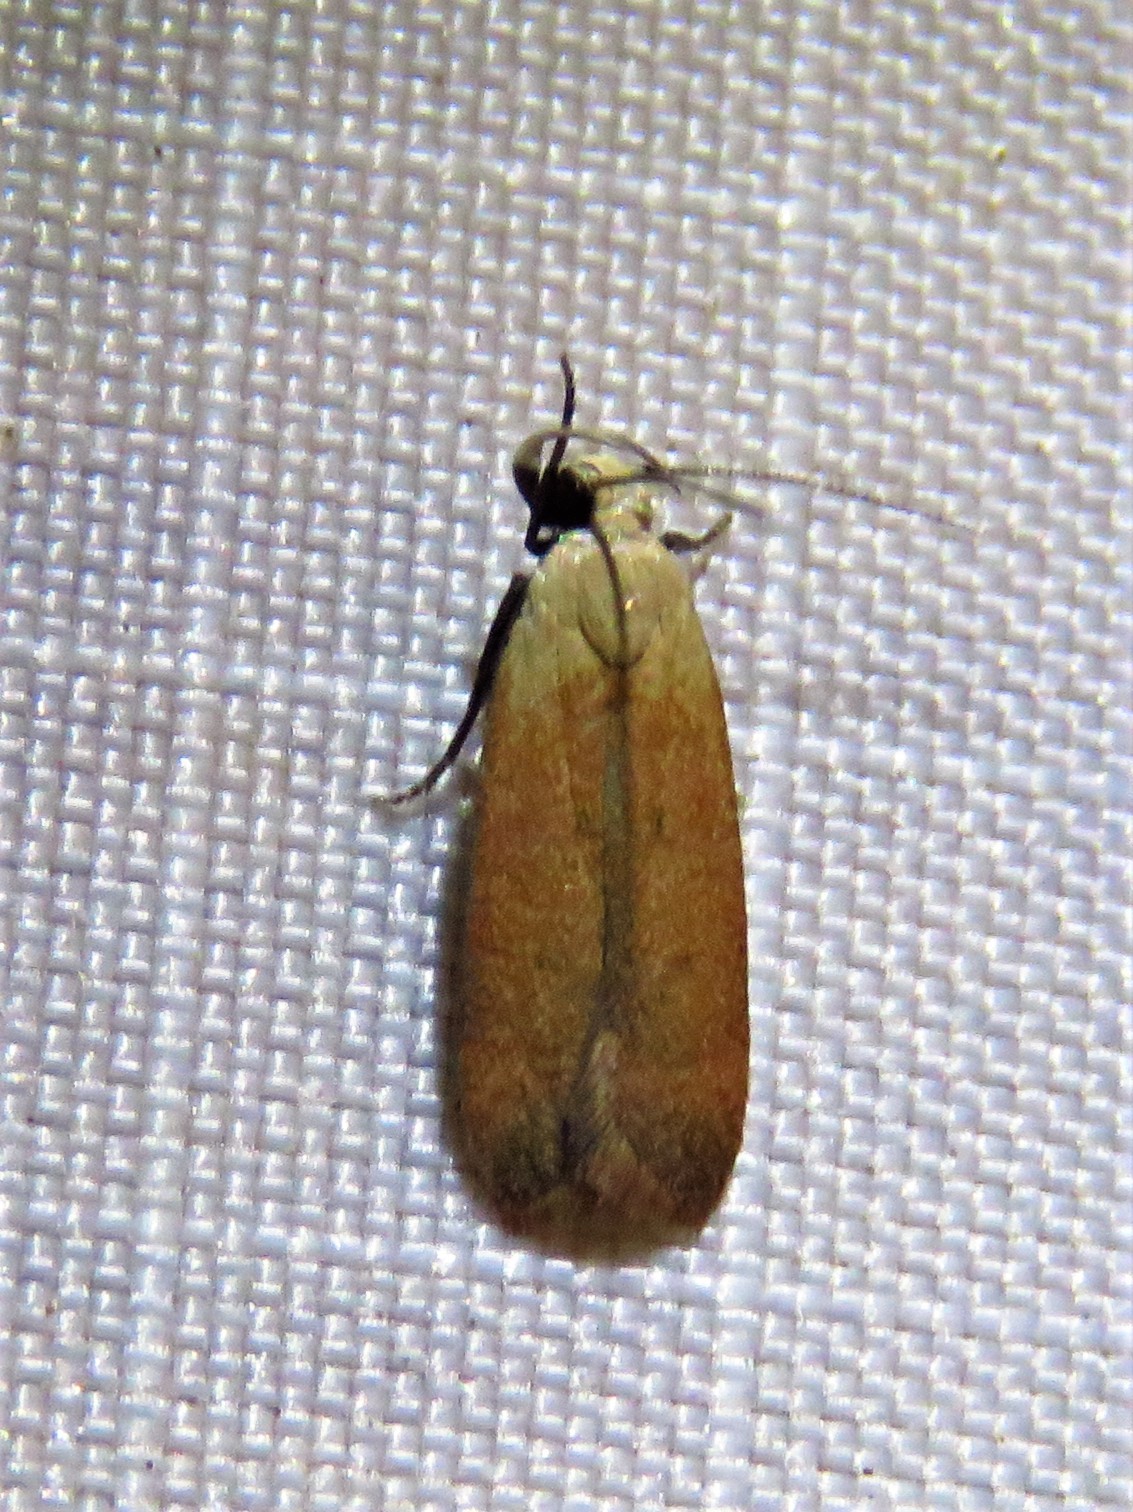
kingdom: Animalia
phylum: Arthropoda
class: Insecta
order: Lepidoptera
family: Gelechiidae
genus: Anacampsis
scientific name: Anacampsis fullonella
